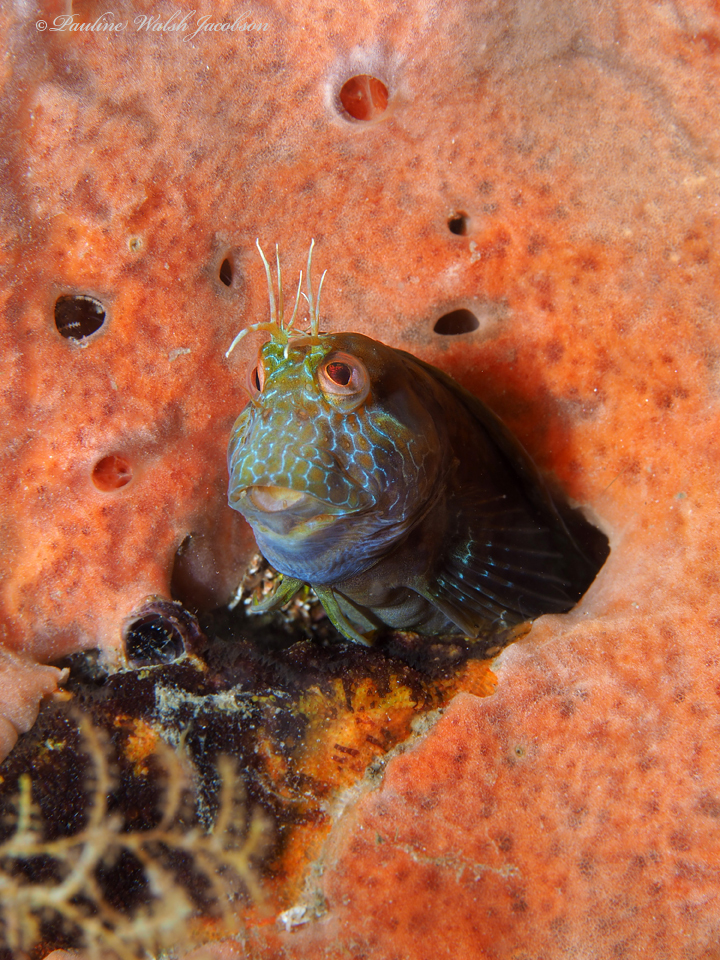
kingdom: Animalia
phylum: Chordata
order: Perciformes
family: Blenniidae
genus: Parablennius
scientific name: Parablennius marmoreus
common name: Seaweed blenny
